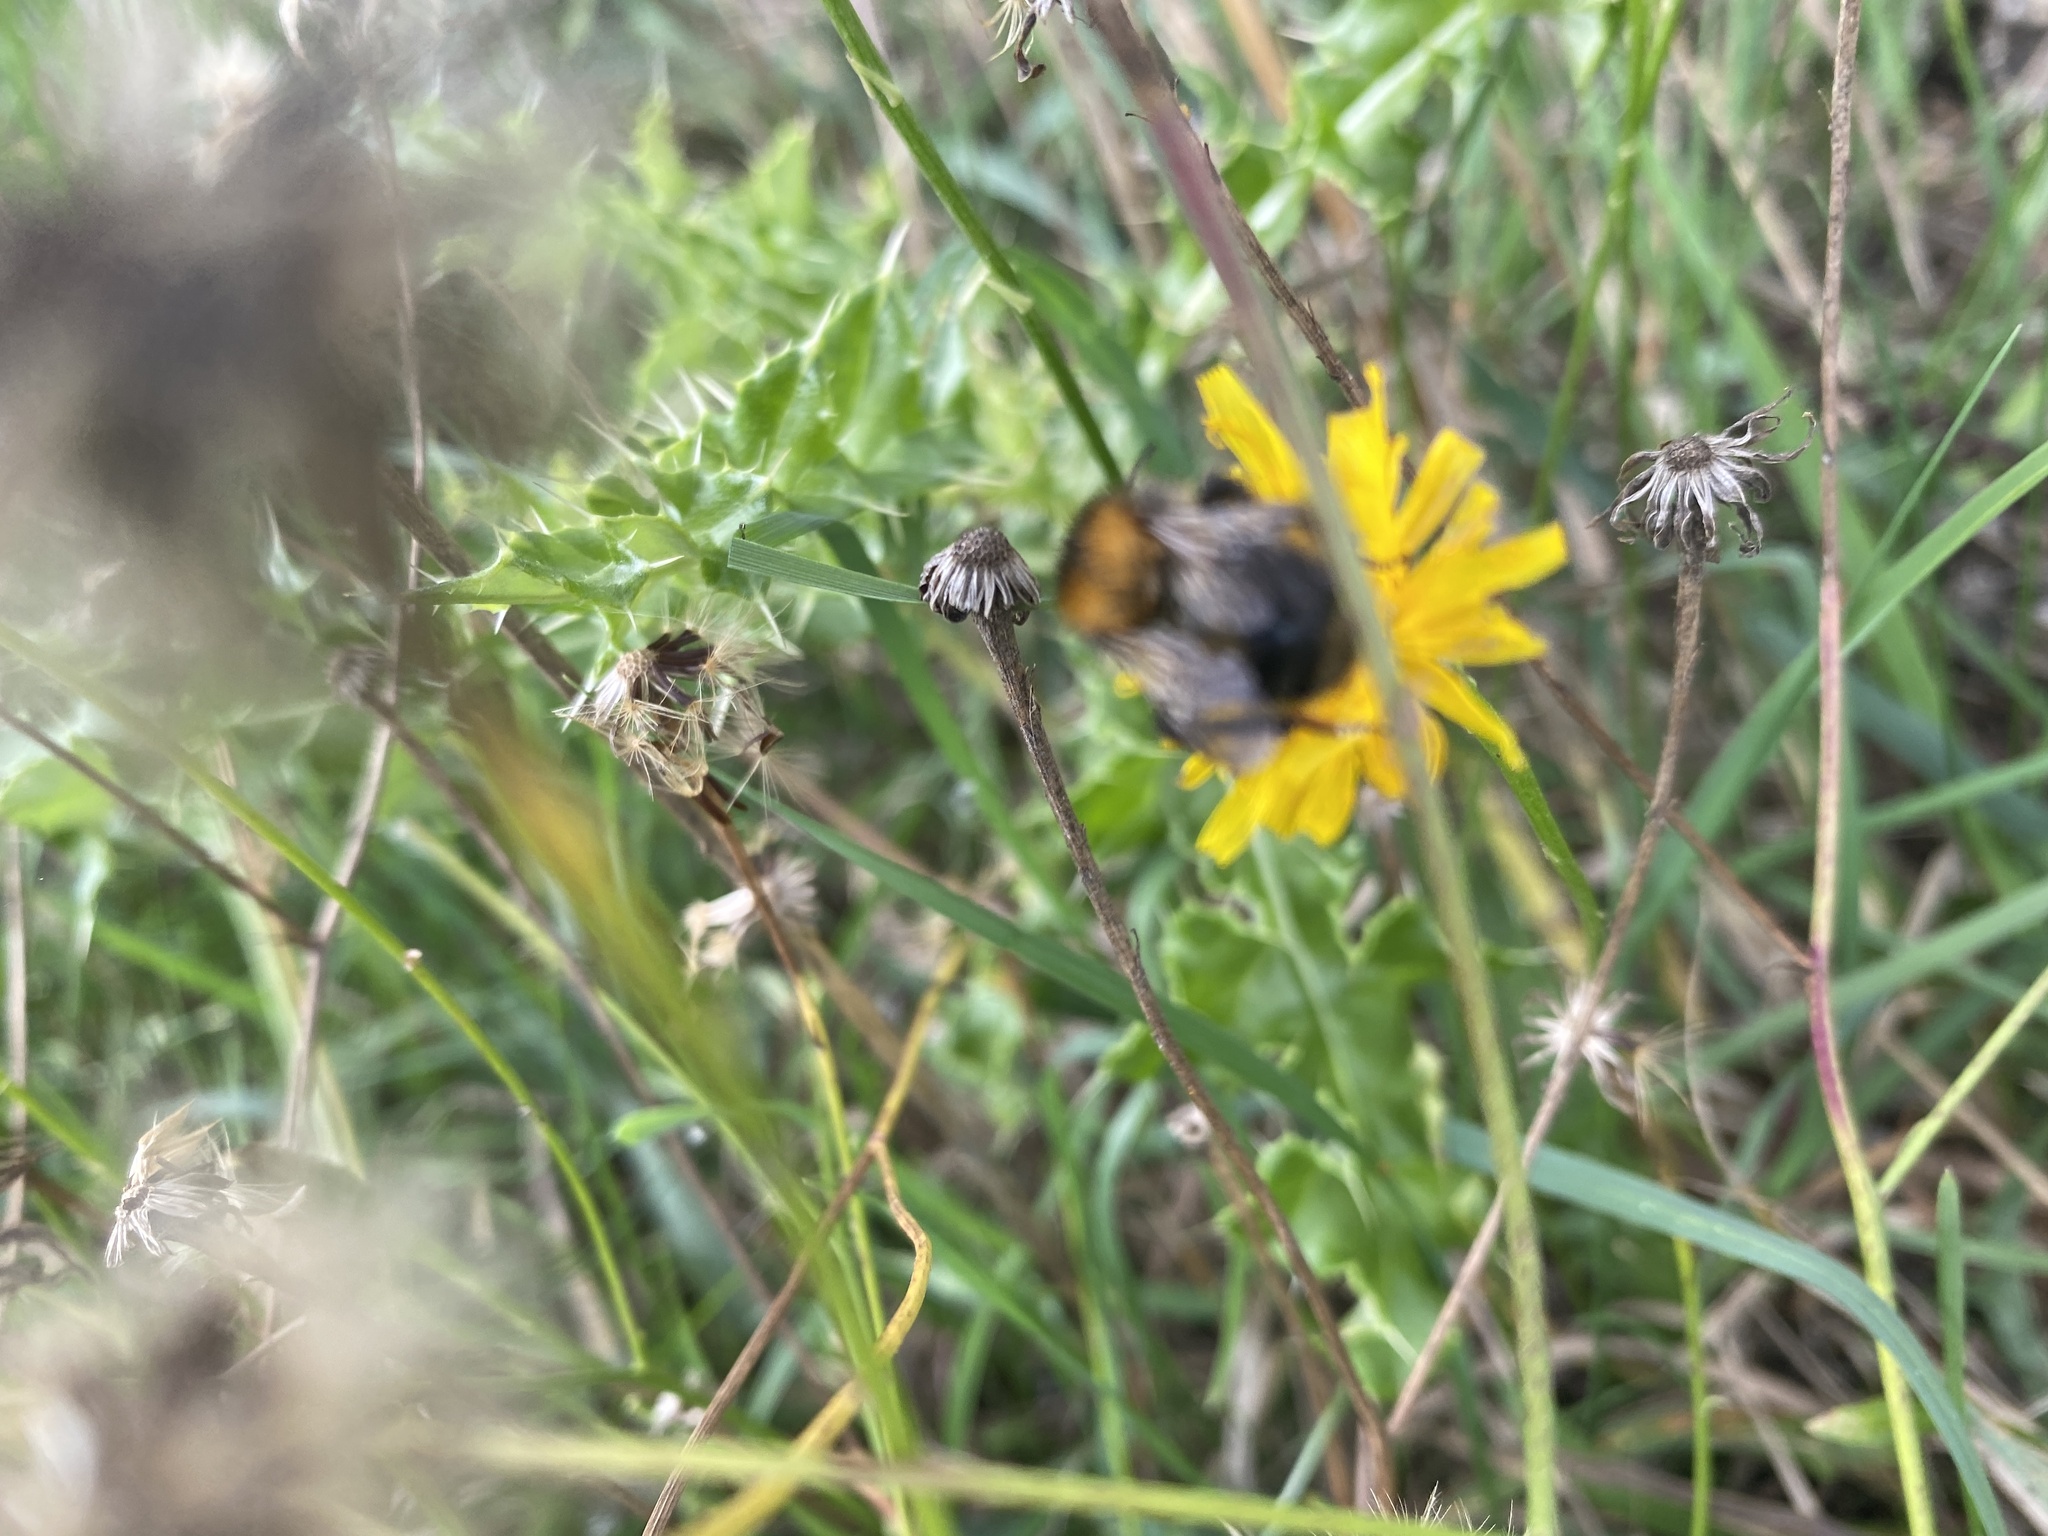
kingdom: Animalia
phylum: Arthropoda
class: Insecta
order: Hymenoptera
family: Apidae
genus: Bombus
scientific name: Bombus pascuorum
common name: Common carder bee
